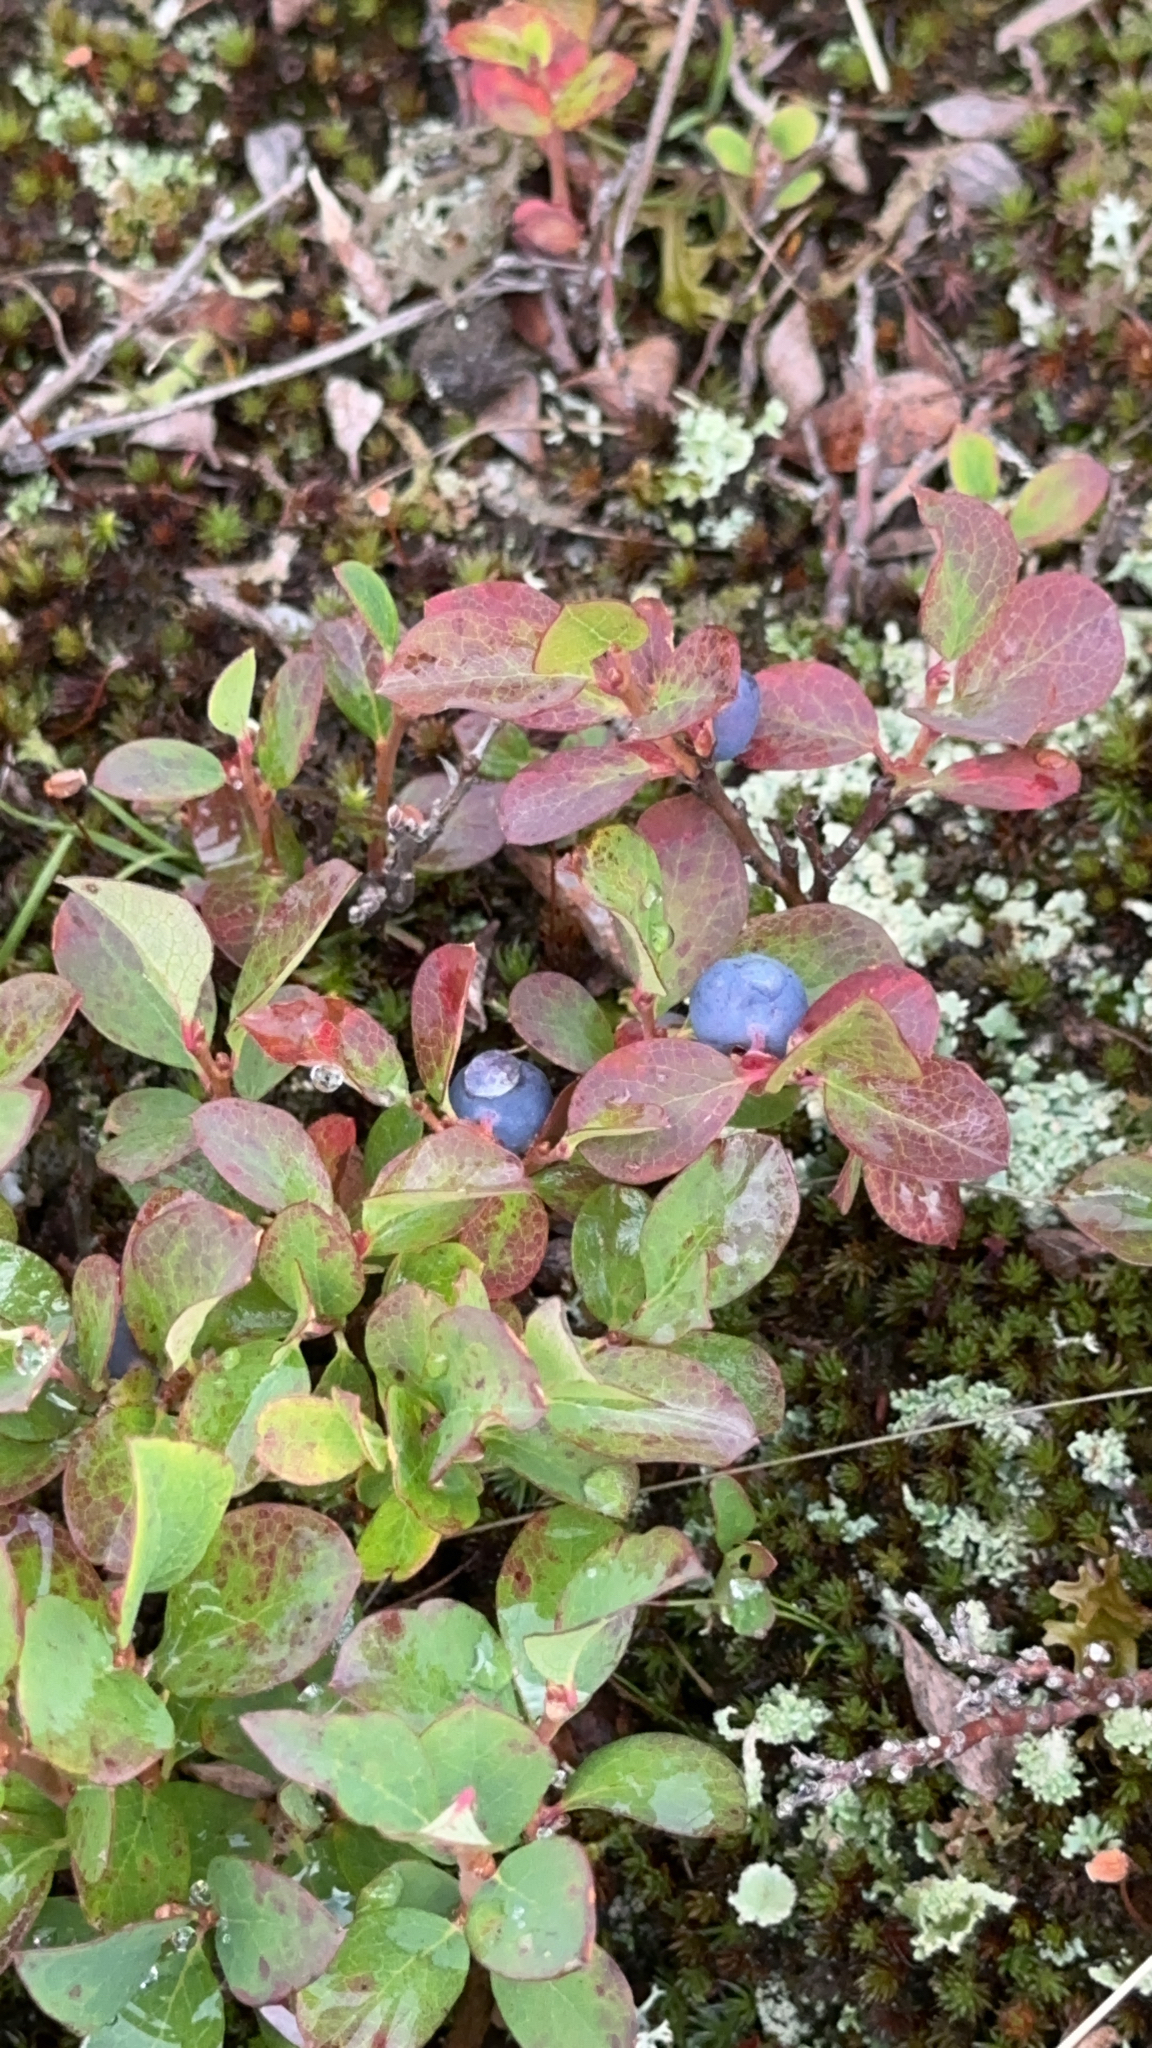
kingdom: Plantae
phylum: Tracheophyta
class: Magnoliopsida
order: Ericales
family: Ericaceae
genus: Vaccinium
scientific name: Vaccinium uliginosum
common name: Bog bilberry
